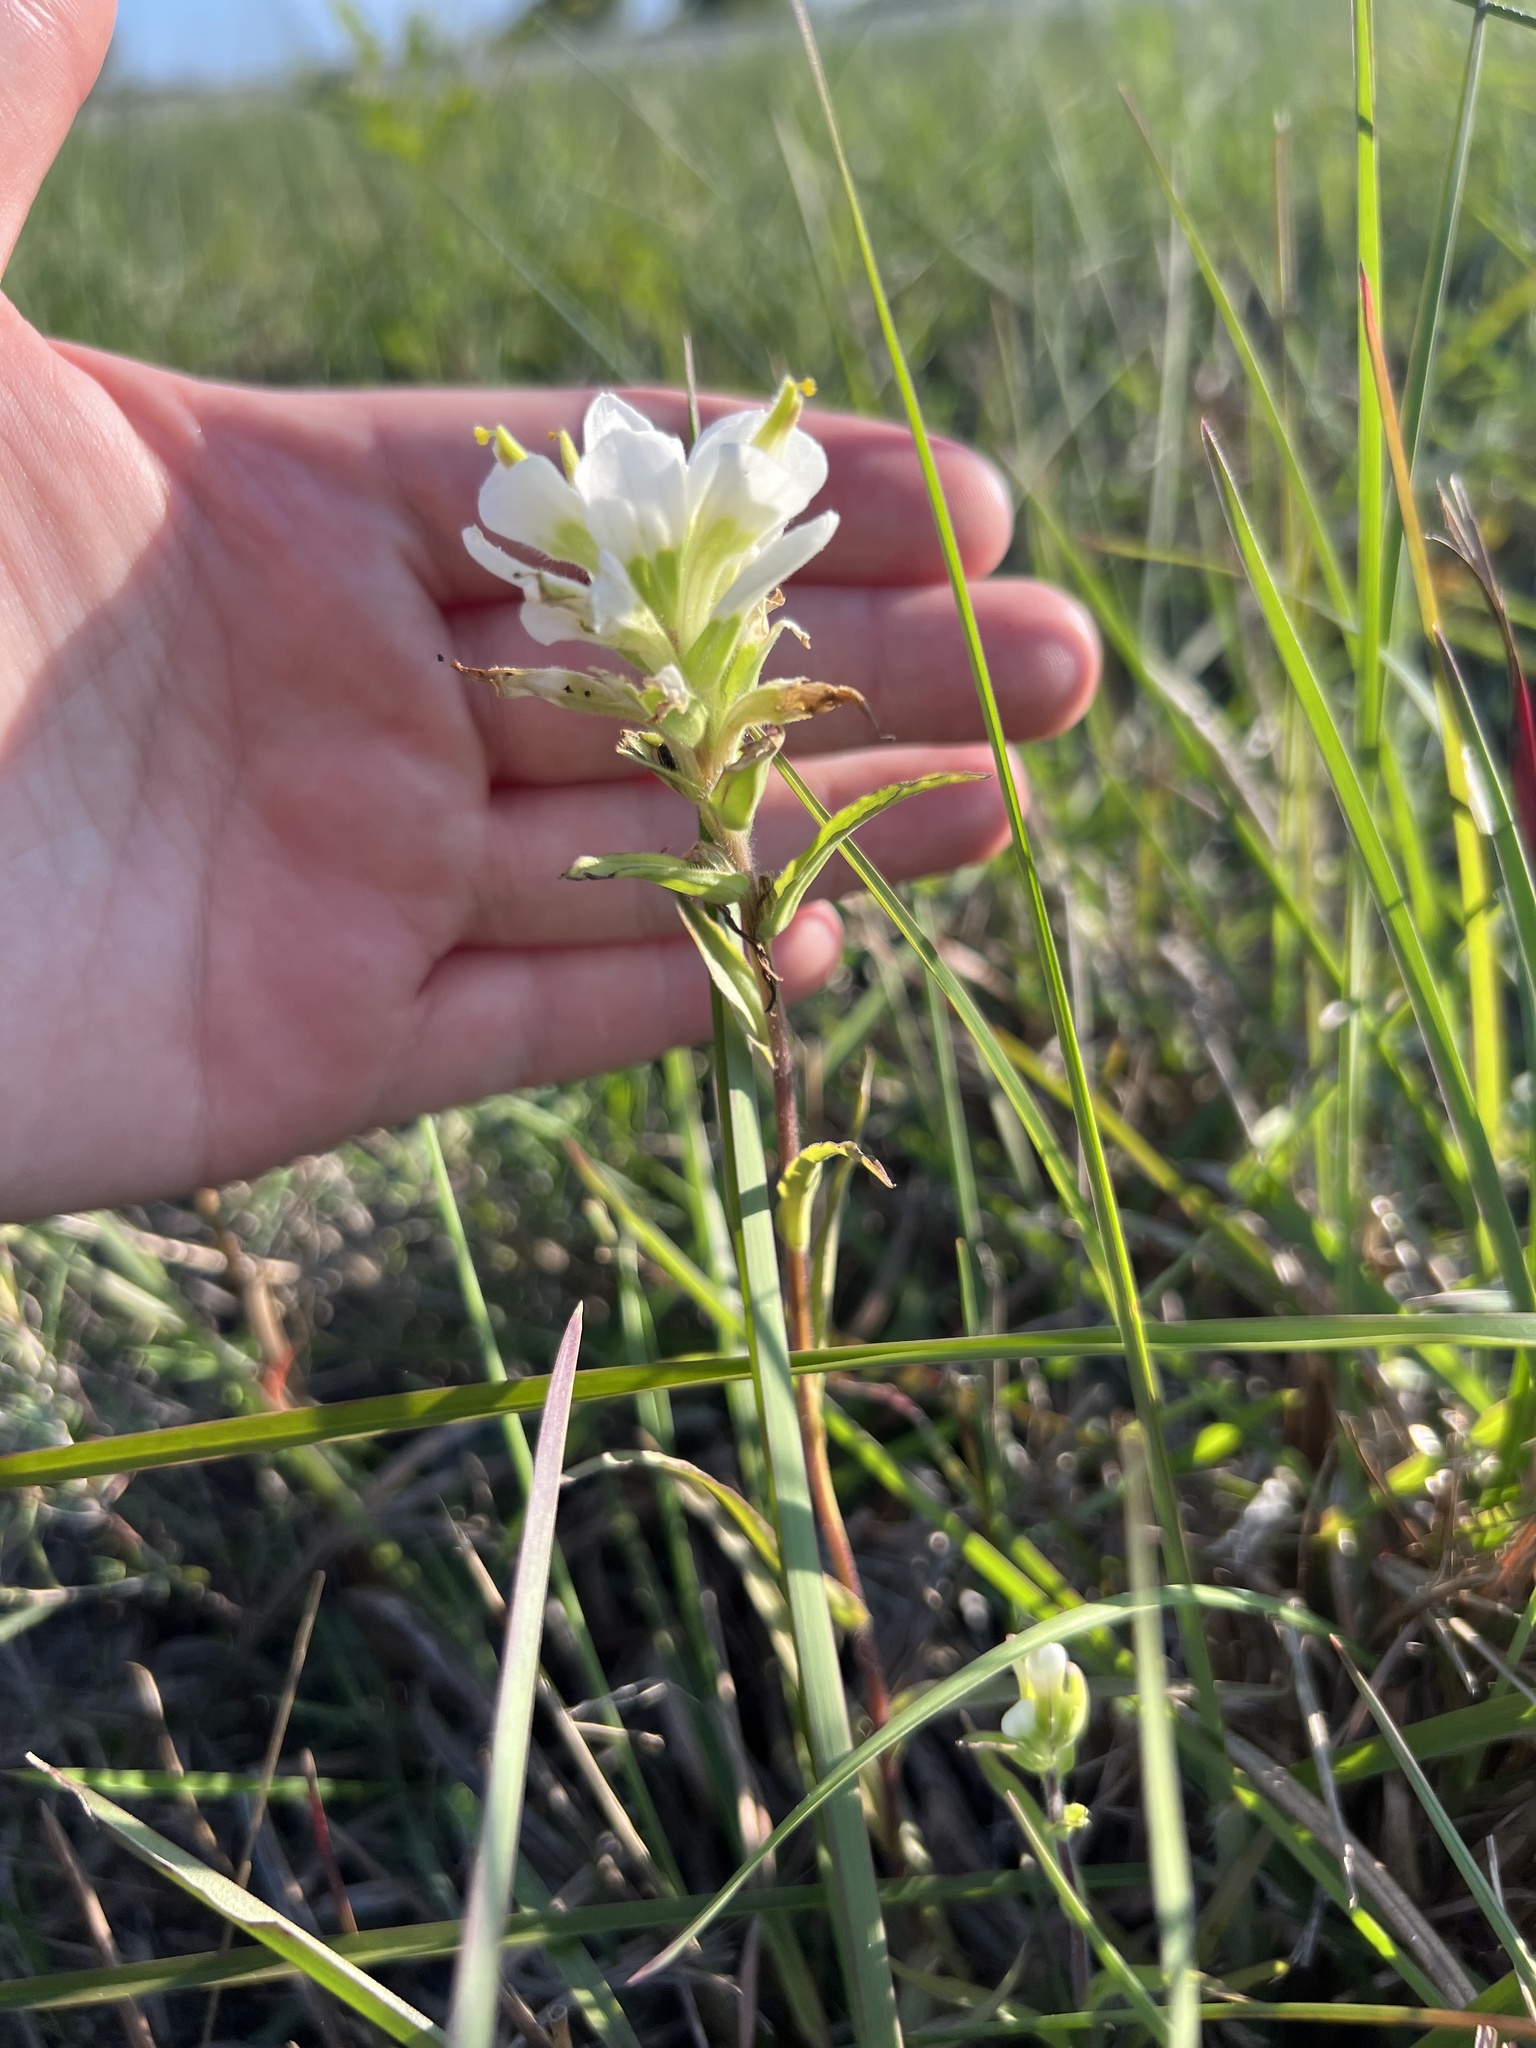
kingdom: Plantae
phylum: Tracheophyta
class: Magnoliopsida
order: Lamiales
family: Orobanchaceae
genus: Castilleja
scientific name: Castilleja halophila
